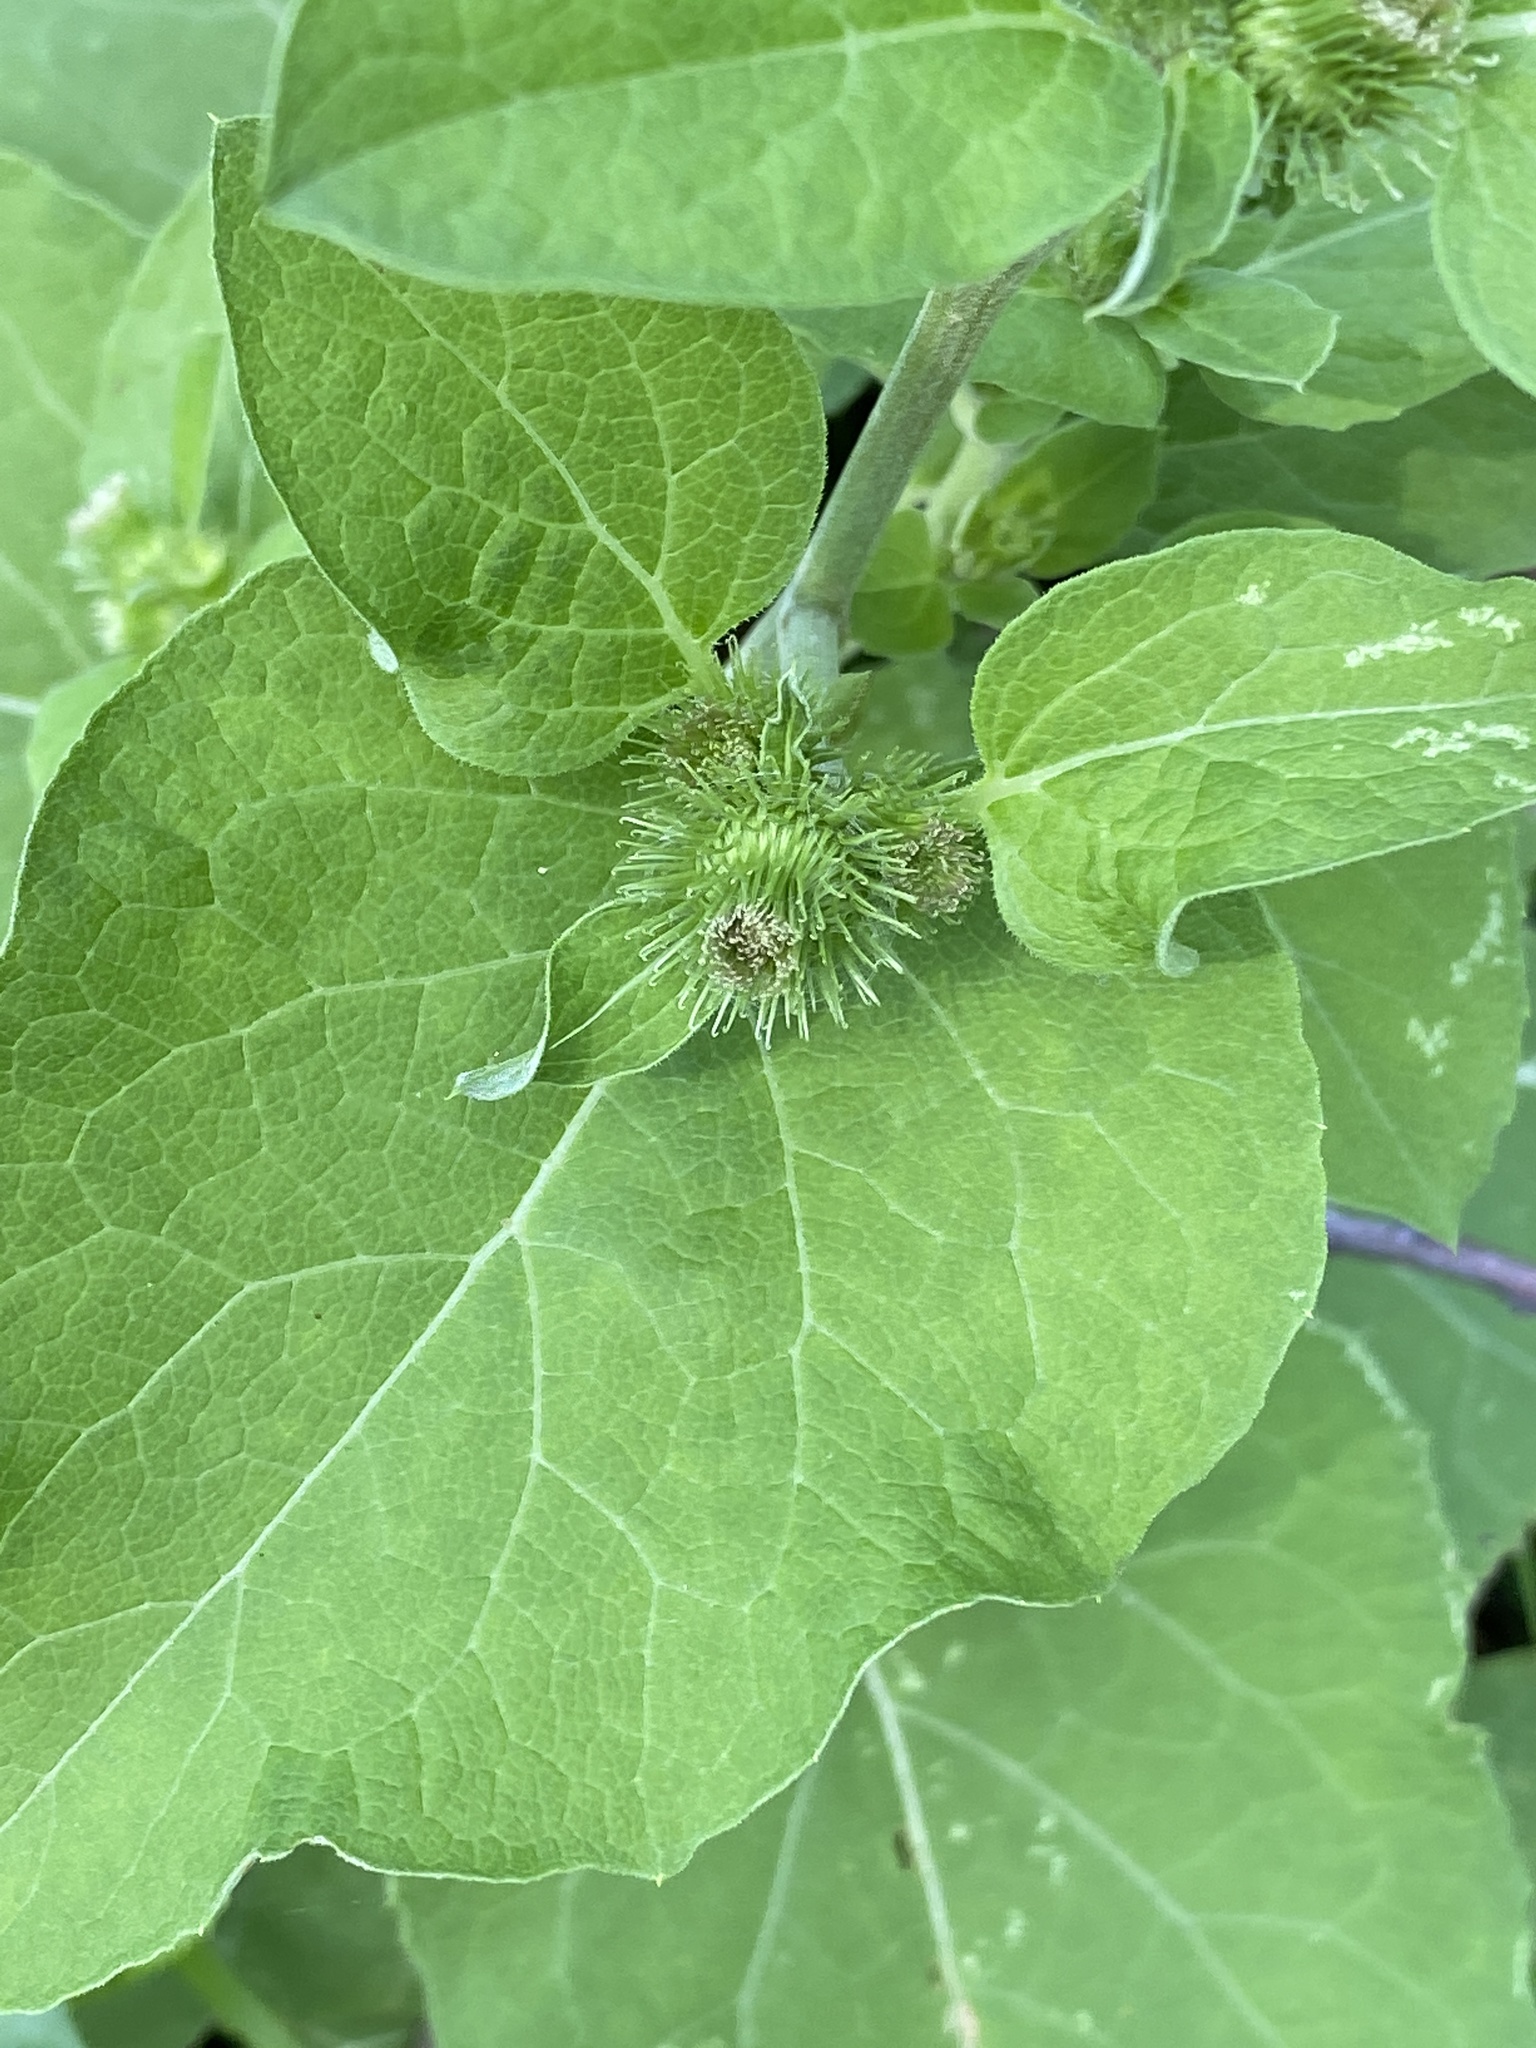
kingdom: Plantae
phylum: Tracheophyta
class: Magnoliopsida
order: Asterales
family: Asteraceae
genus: Arctium
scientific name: Arctium minus
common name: Lesser burdock
